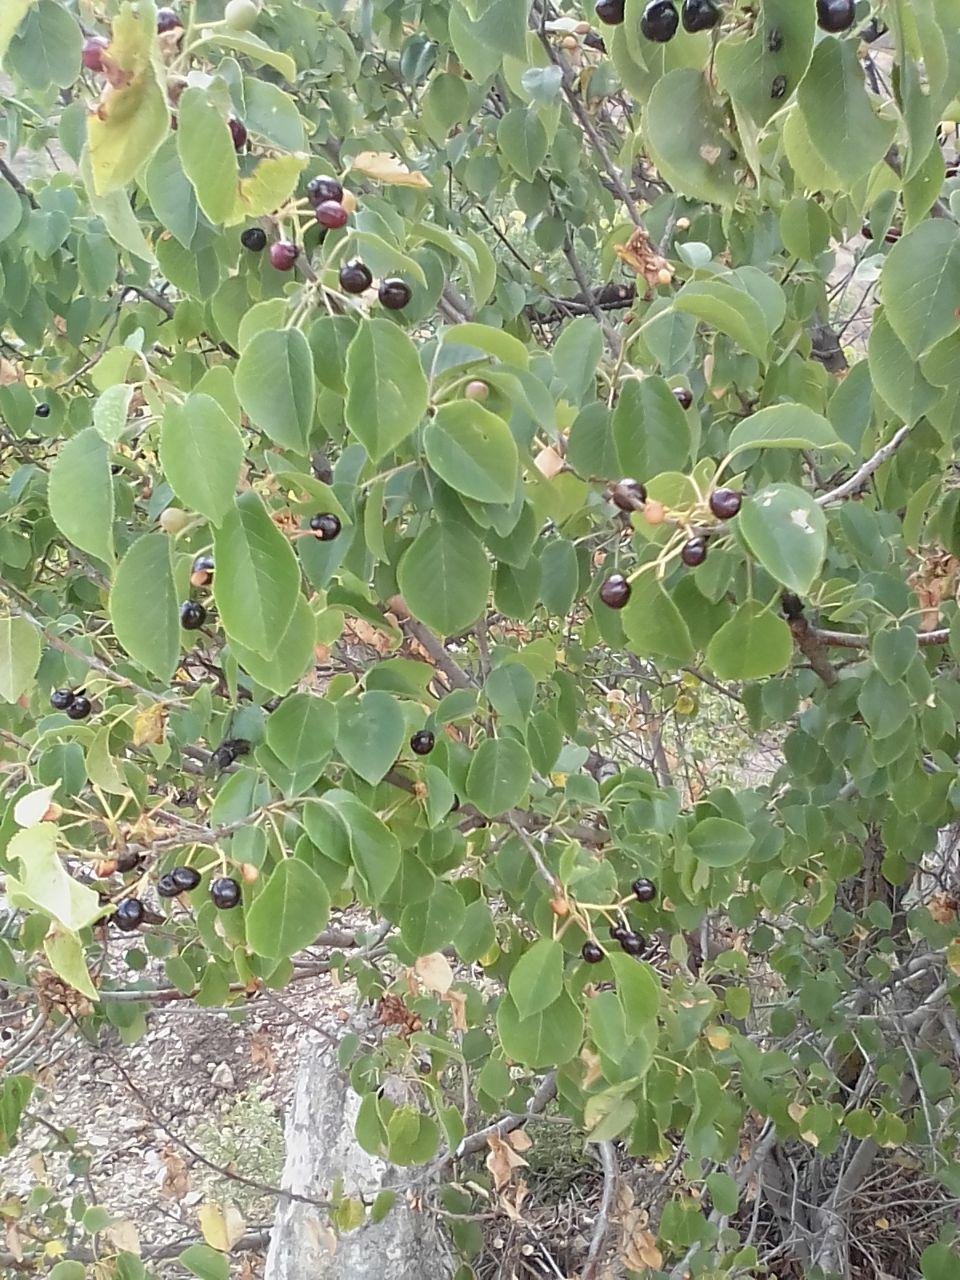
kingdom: Plantae
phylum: Tracheophyta
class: Magnoliopsida
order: Rosales
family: Rosaceae
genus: Prunus
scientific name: Prunus mahaleb
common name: Mahaleb cherry
